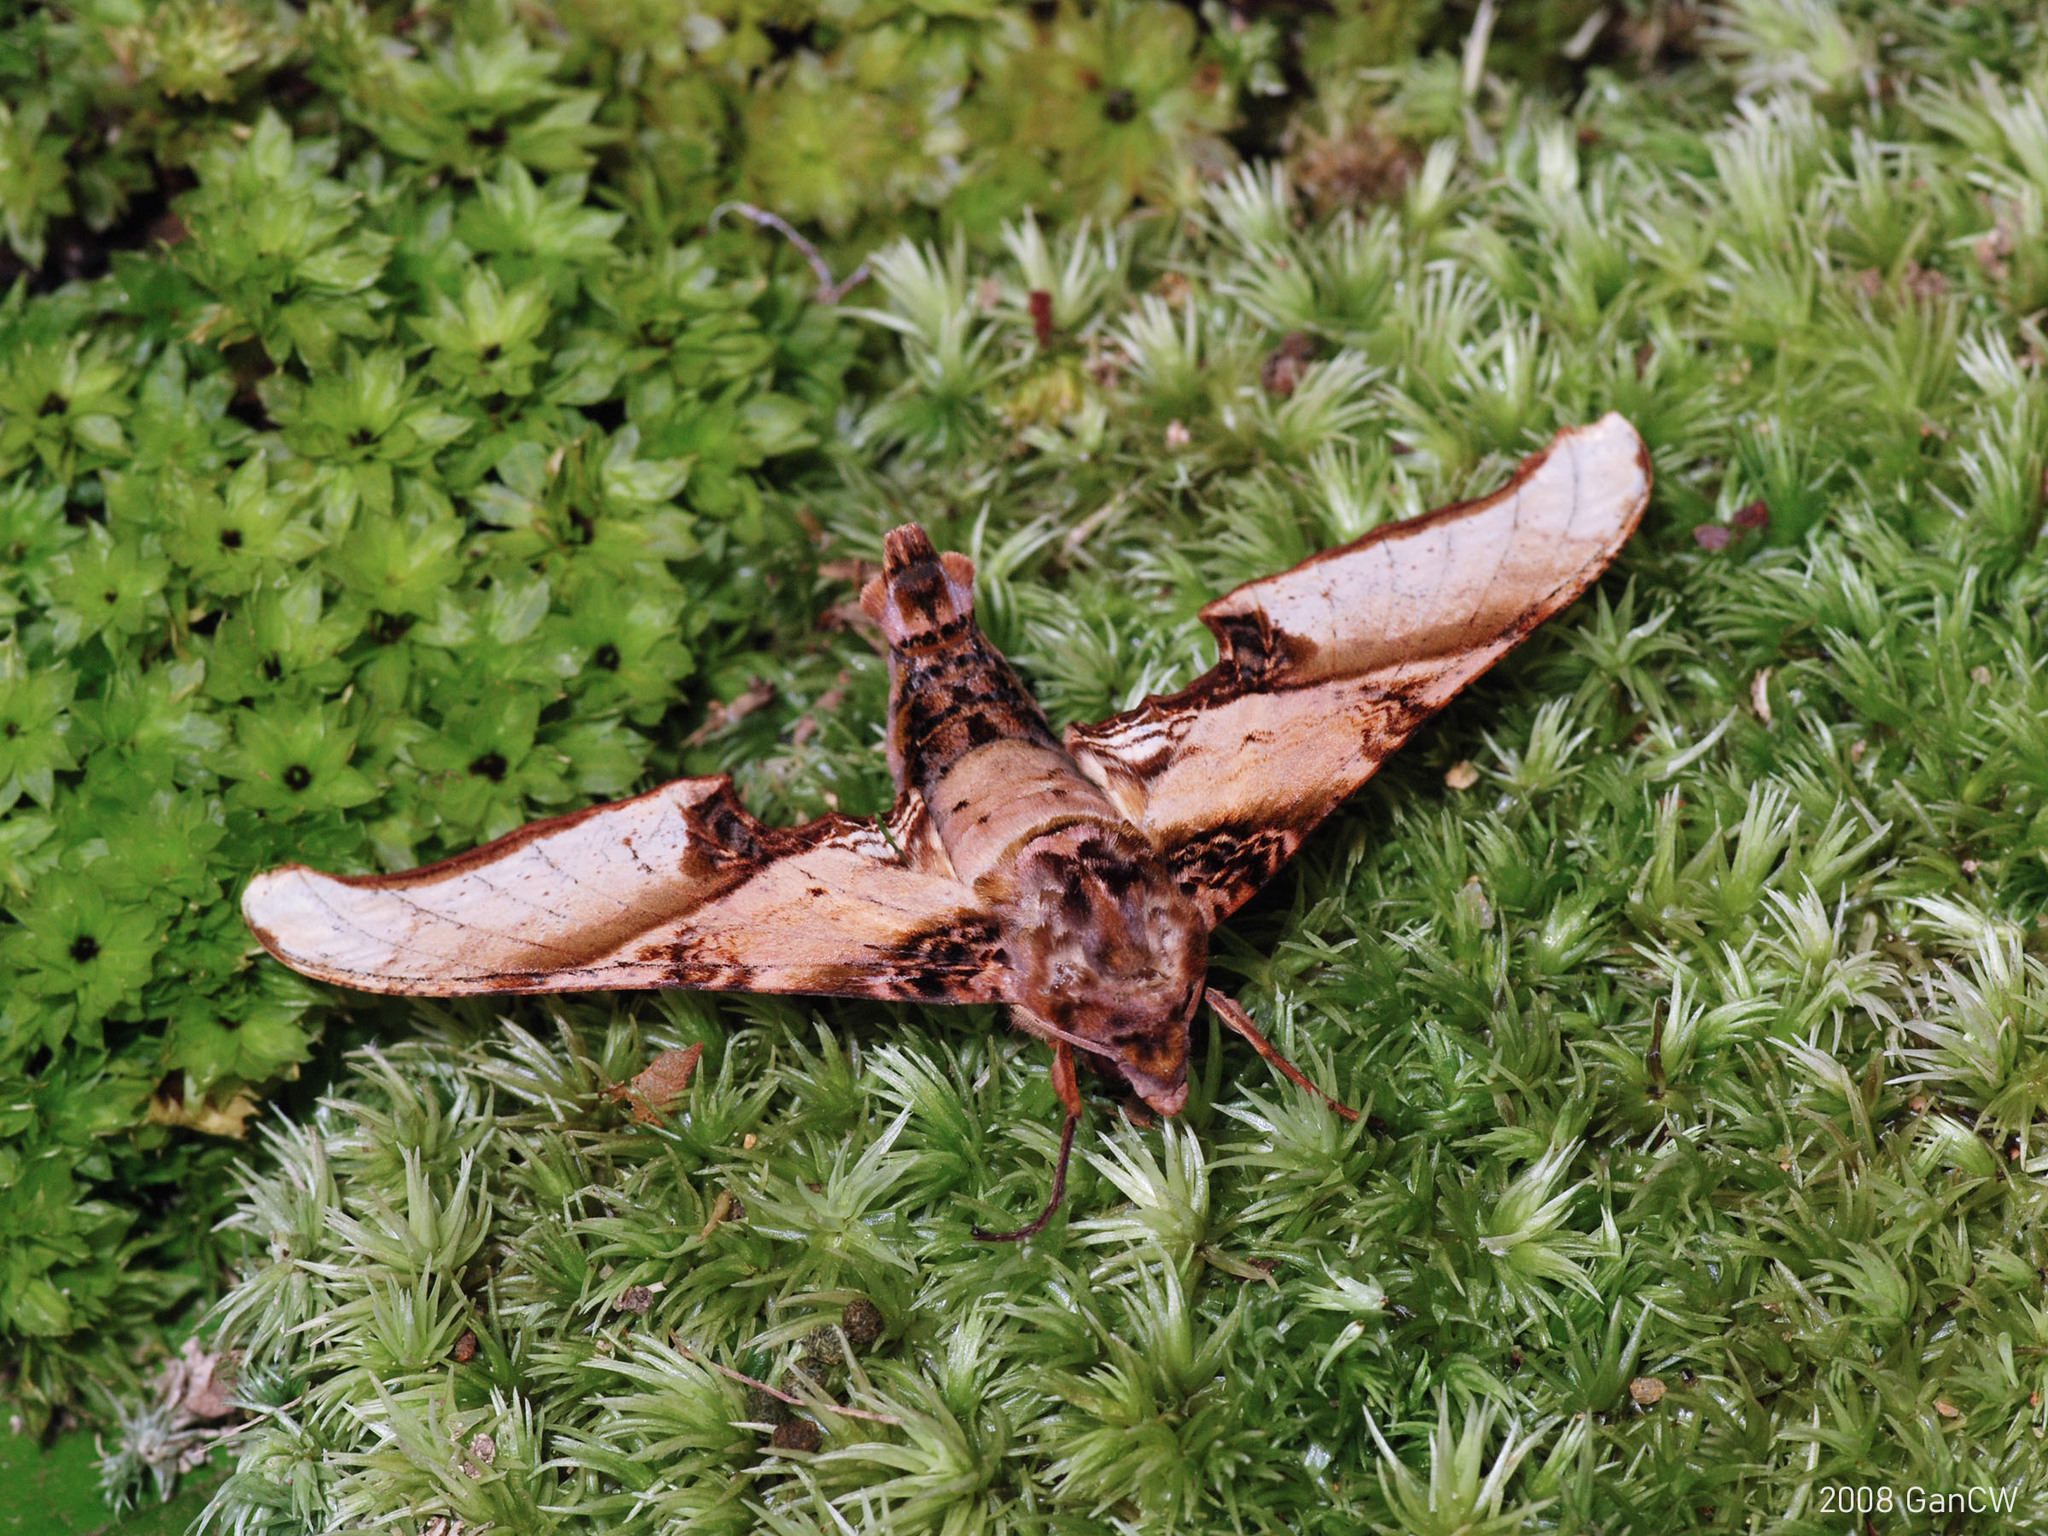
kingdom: Animalia
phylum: Arthropoda
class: Insecta
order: Lepidoptera
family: Sphingidae
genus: Amplypterus
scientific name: Amplypterus mansoni
